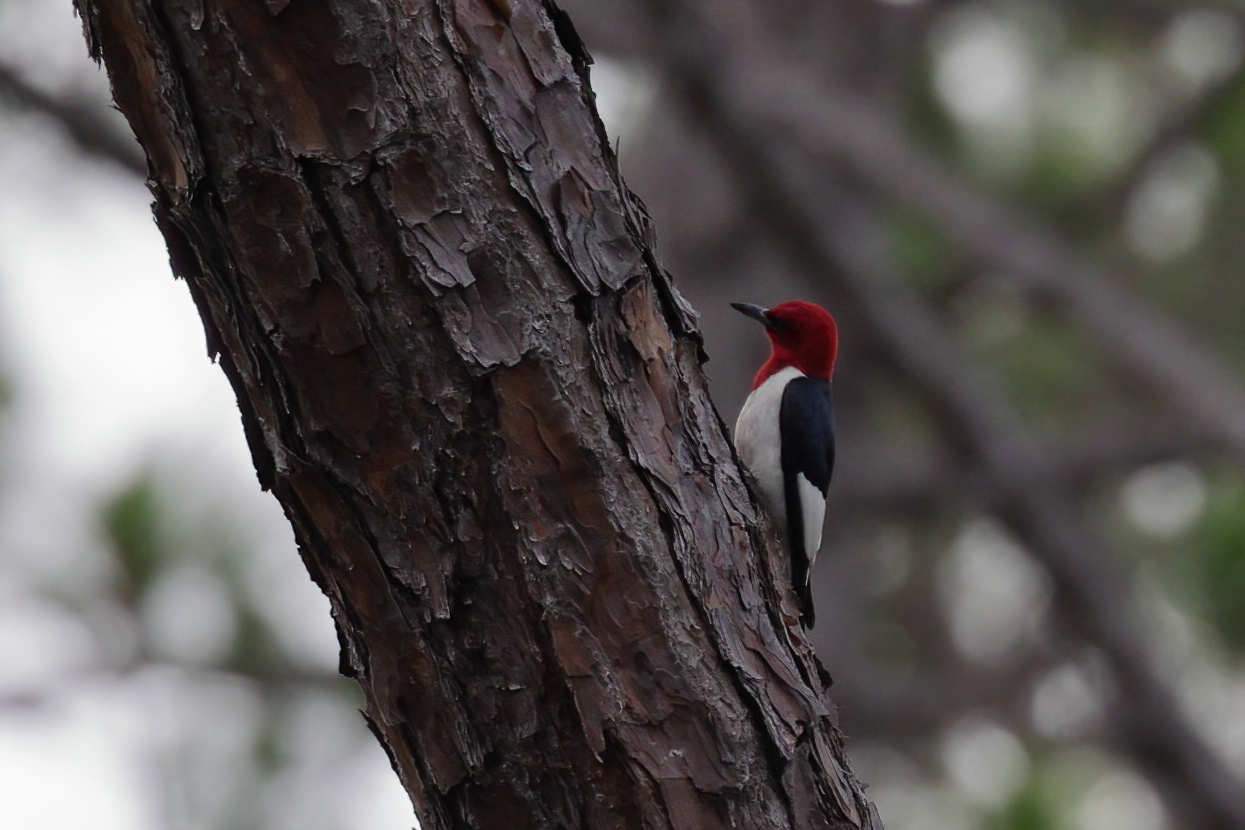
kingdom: Animalia
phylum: Chordata
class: Aves
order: Piciformes
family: Picidae
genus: Melanerpes
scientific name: Melanerpes erythrocephalus
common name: Red-headed woodpecker
